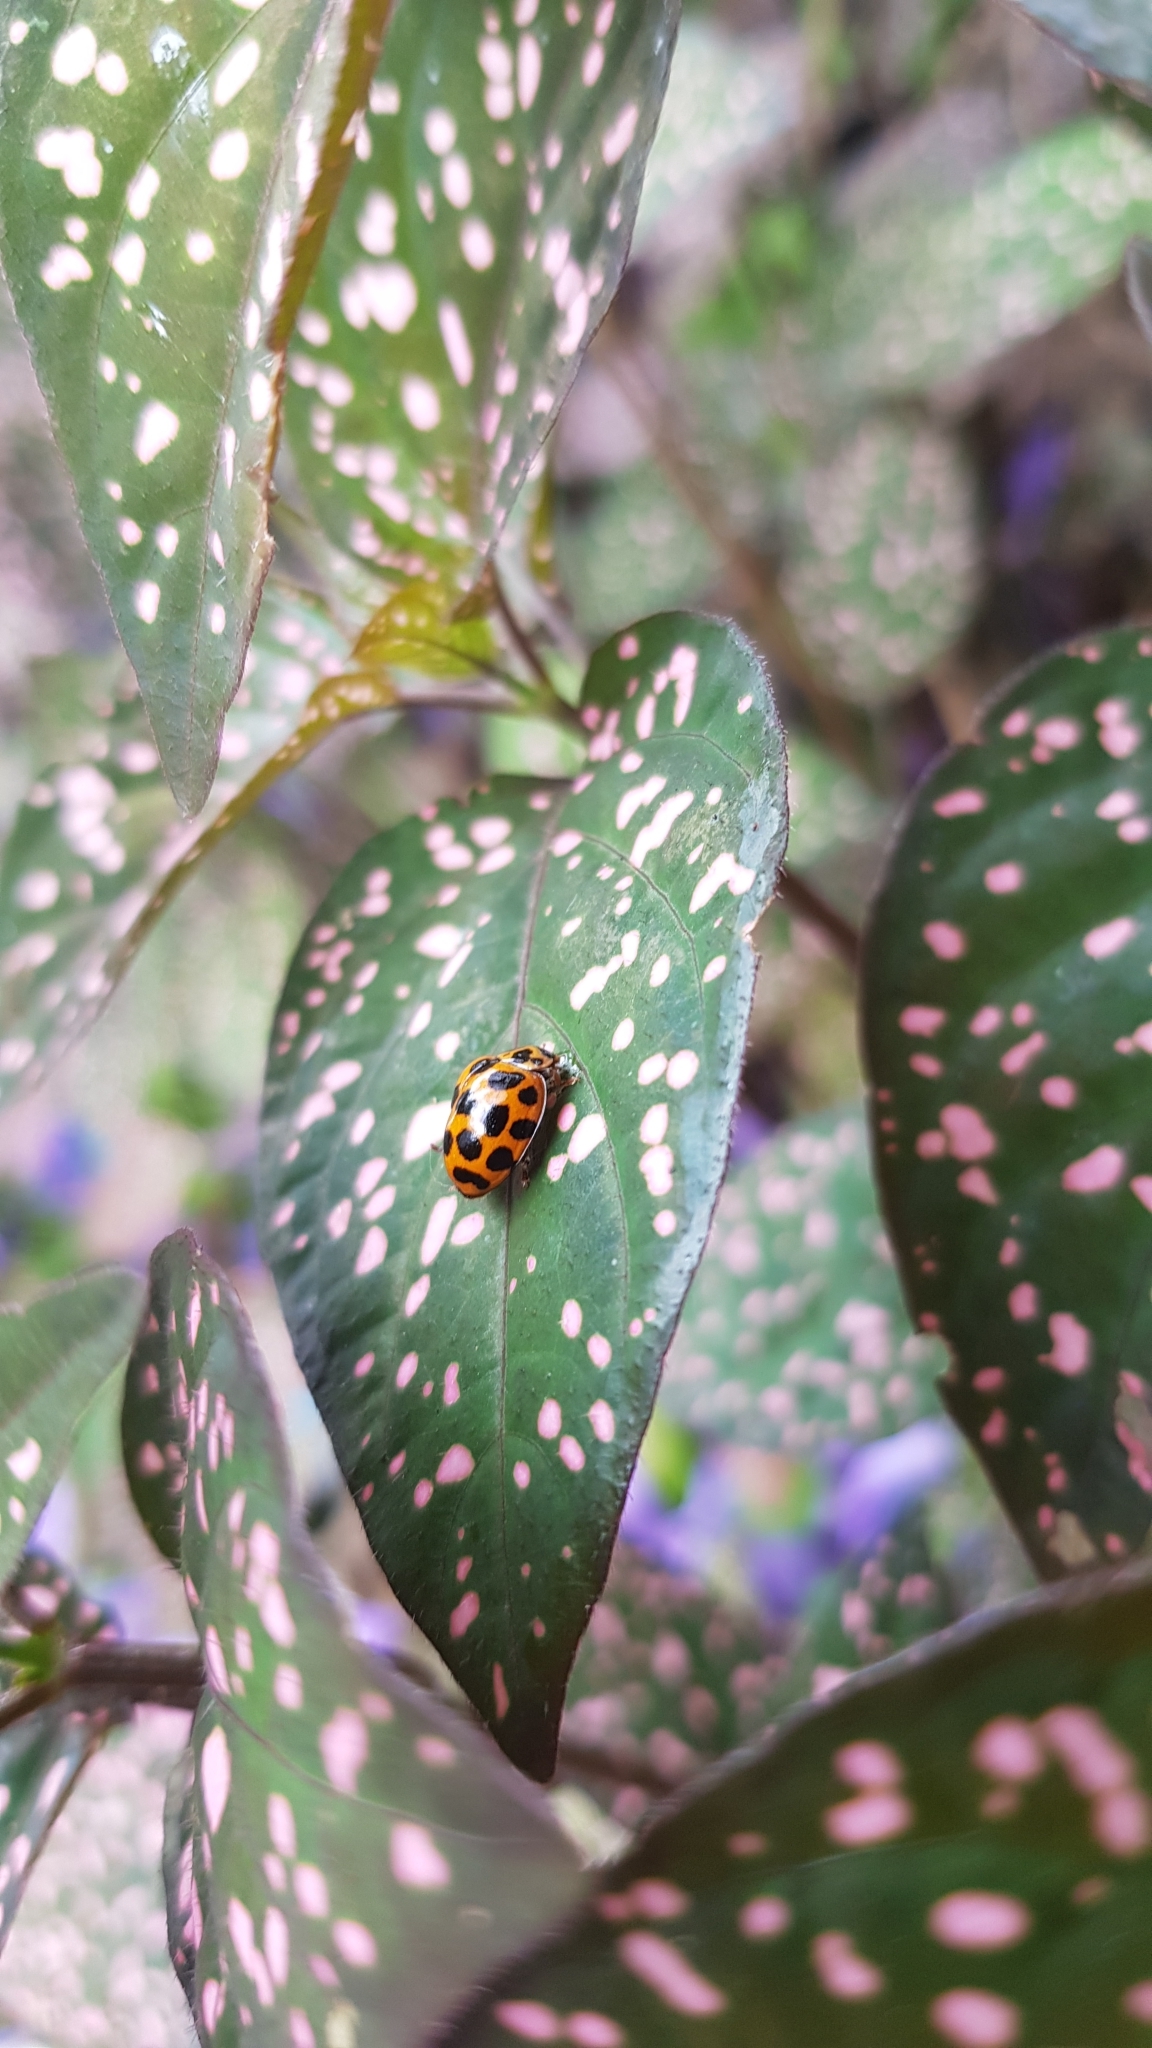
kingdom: Animalia
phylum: Arthropoda
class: Insecta
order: Coleoptera
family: Coccinellidae
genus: Harmonia
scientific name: Harmonia conformis
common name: Common spotted ladybird beetle
